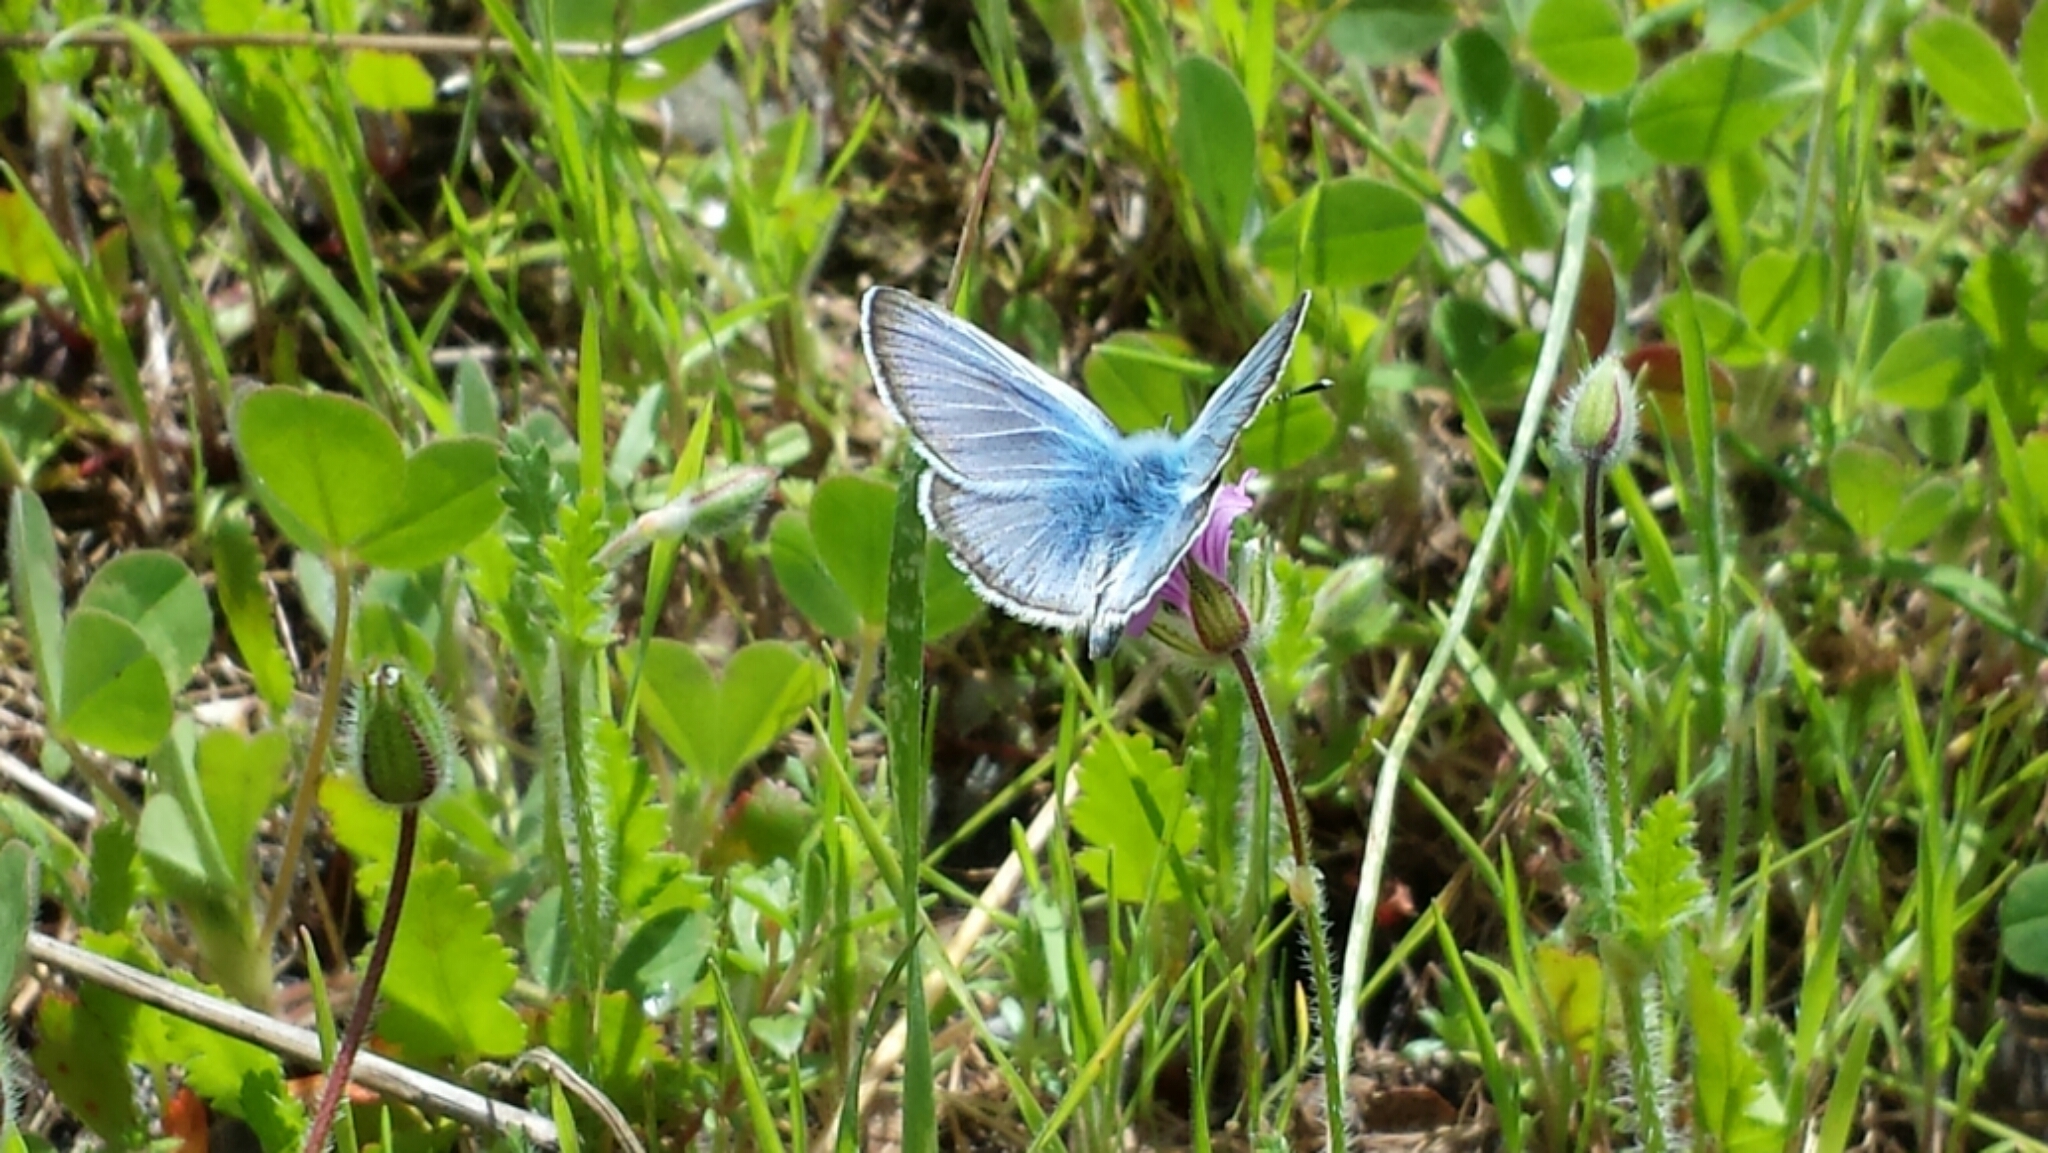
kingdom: Animalia
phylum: Arthropoda
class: Insecta
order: Lepidoptera
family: Lycaenidae
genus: Glaucopsyche
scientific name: Glaucopsyche lygdamus
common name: Silvery blue
